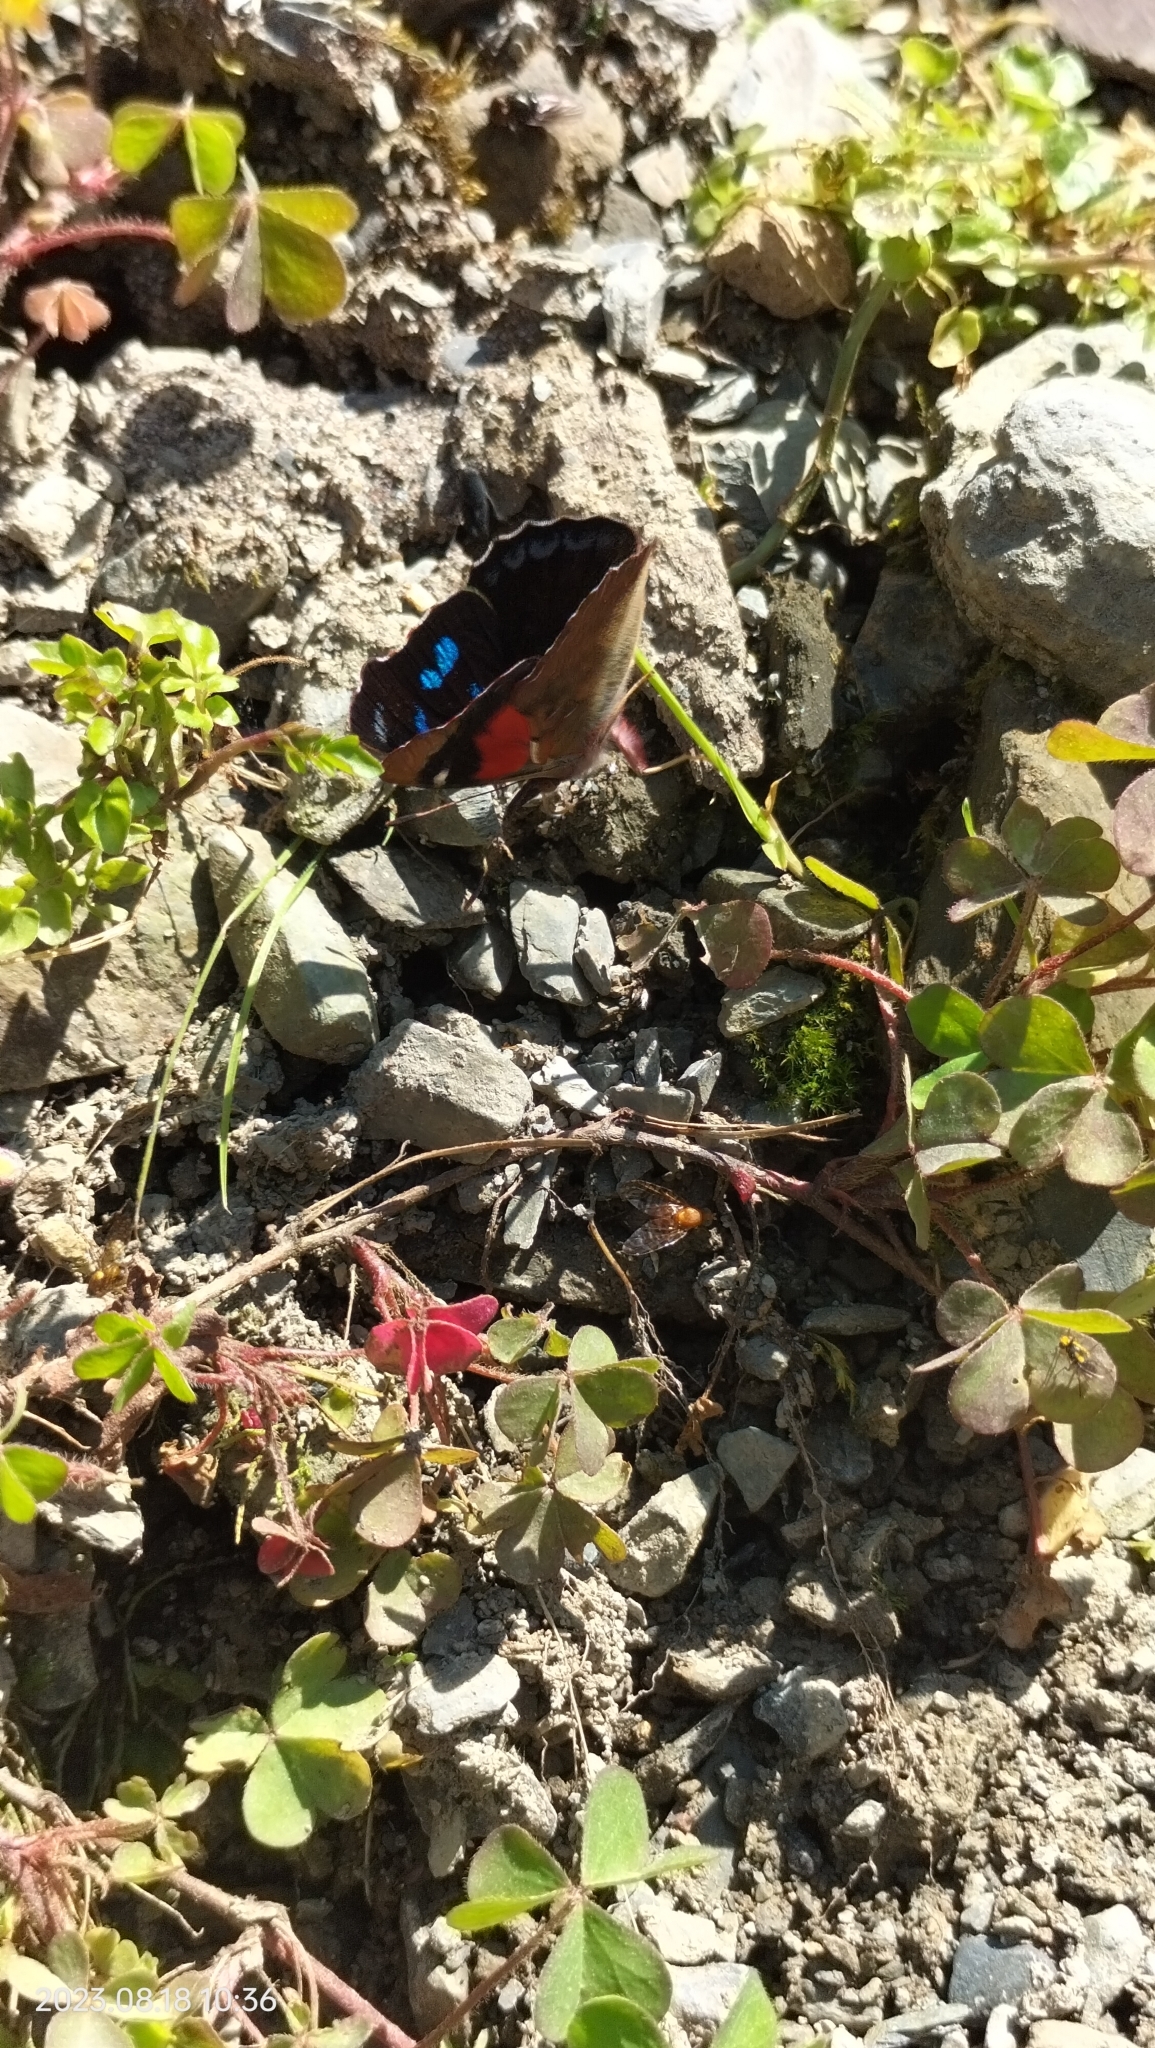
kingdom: Animalia
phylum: Arthropoda
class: Insecta
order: Lepidoptera
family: Nymphalidae
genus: Perisama
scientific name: Perisama Orophila cecidas
